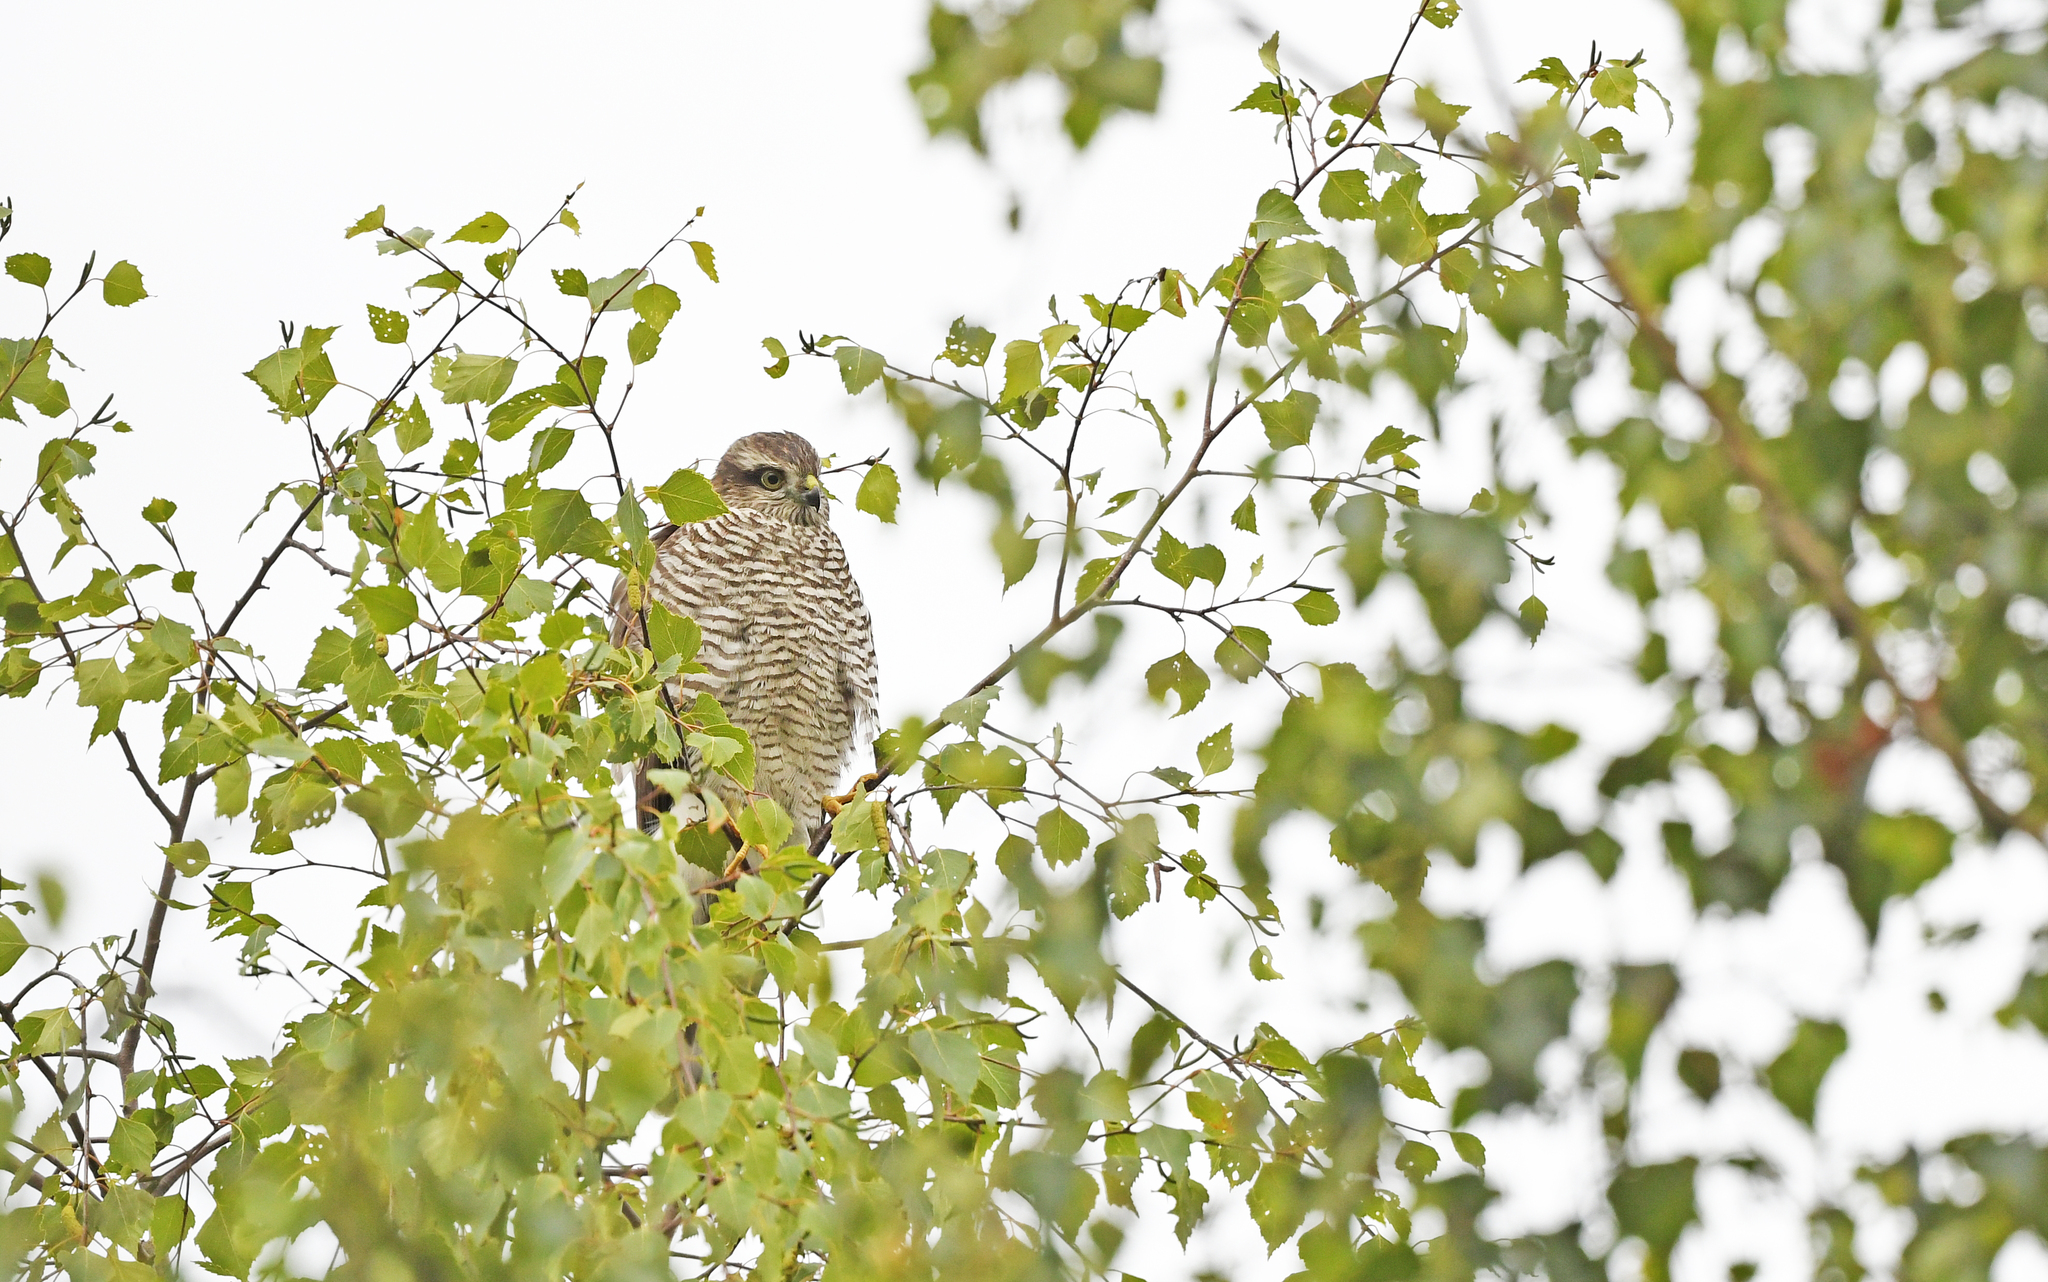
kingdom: Animalia
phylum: Chordata
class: Aves
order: Accipitriformes
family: Accipitridae
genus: Accipiter
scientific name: Accipiter nisus
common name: Eurasian sparrowhawk
